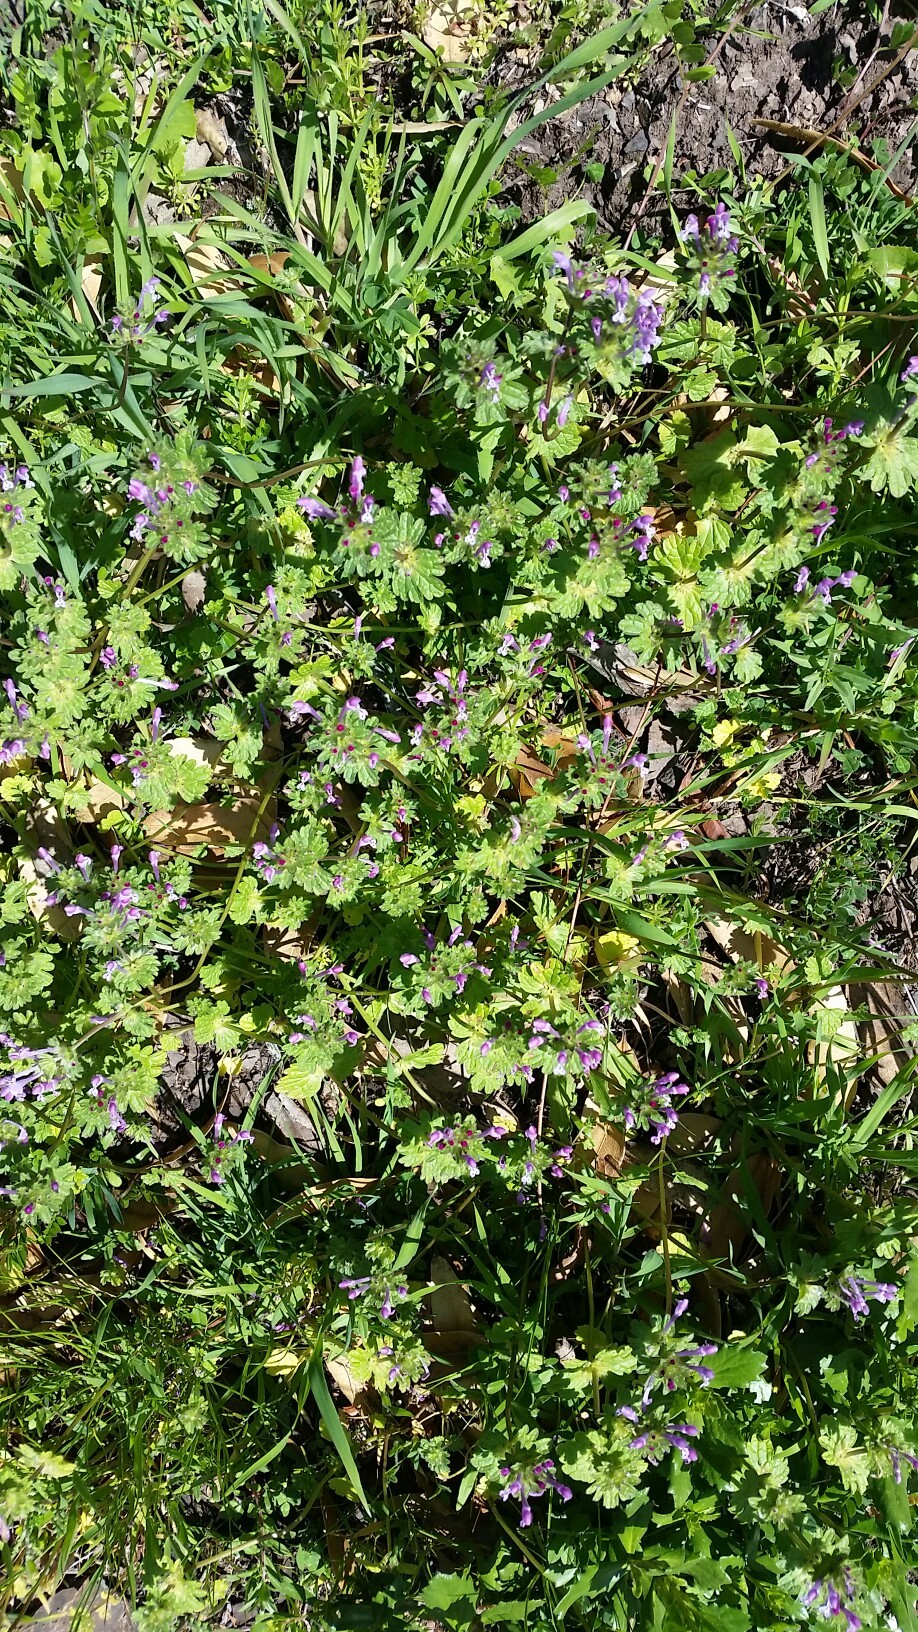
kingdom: Plantae
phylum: Tracheophyta
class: Magnoliopsida
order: Lamiales
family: Lamiaceae
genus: Lamium
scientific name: Lamium amplexicaule
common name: Henbit dead-nettle
